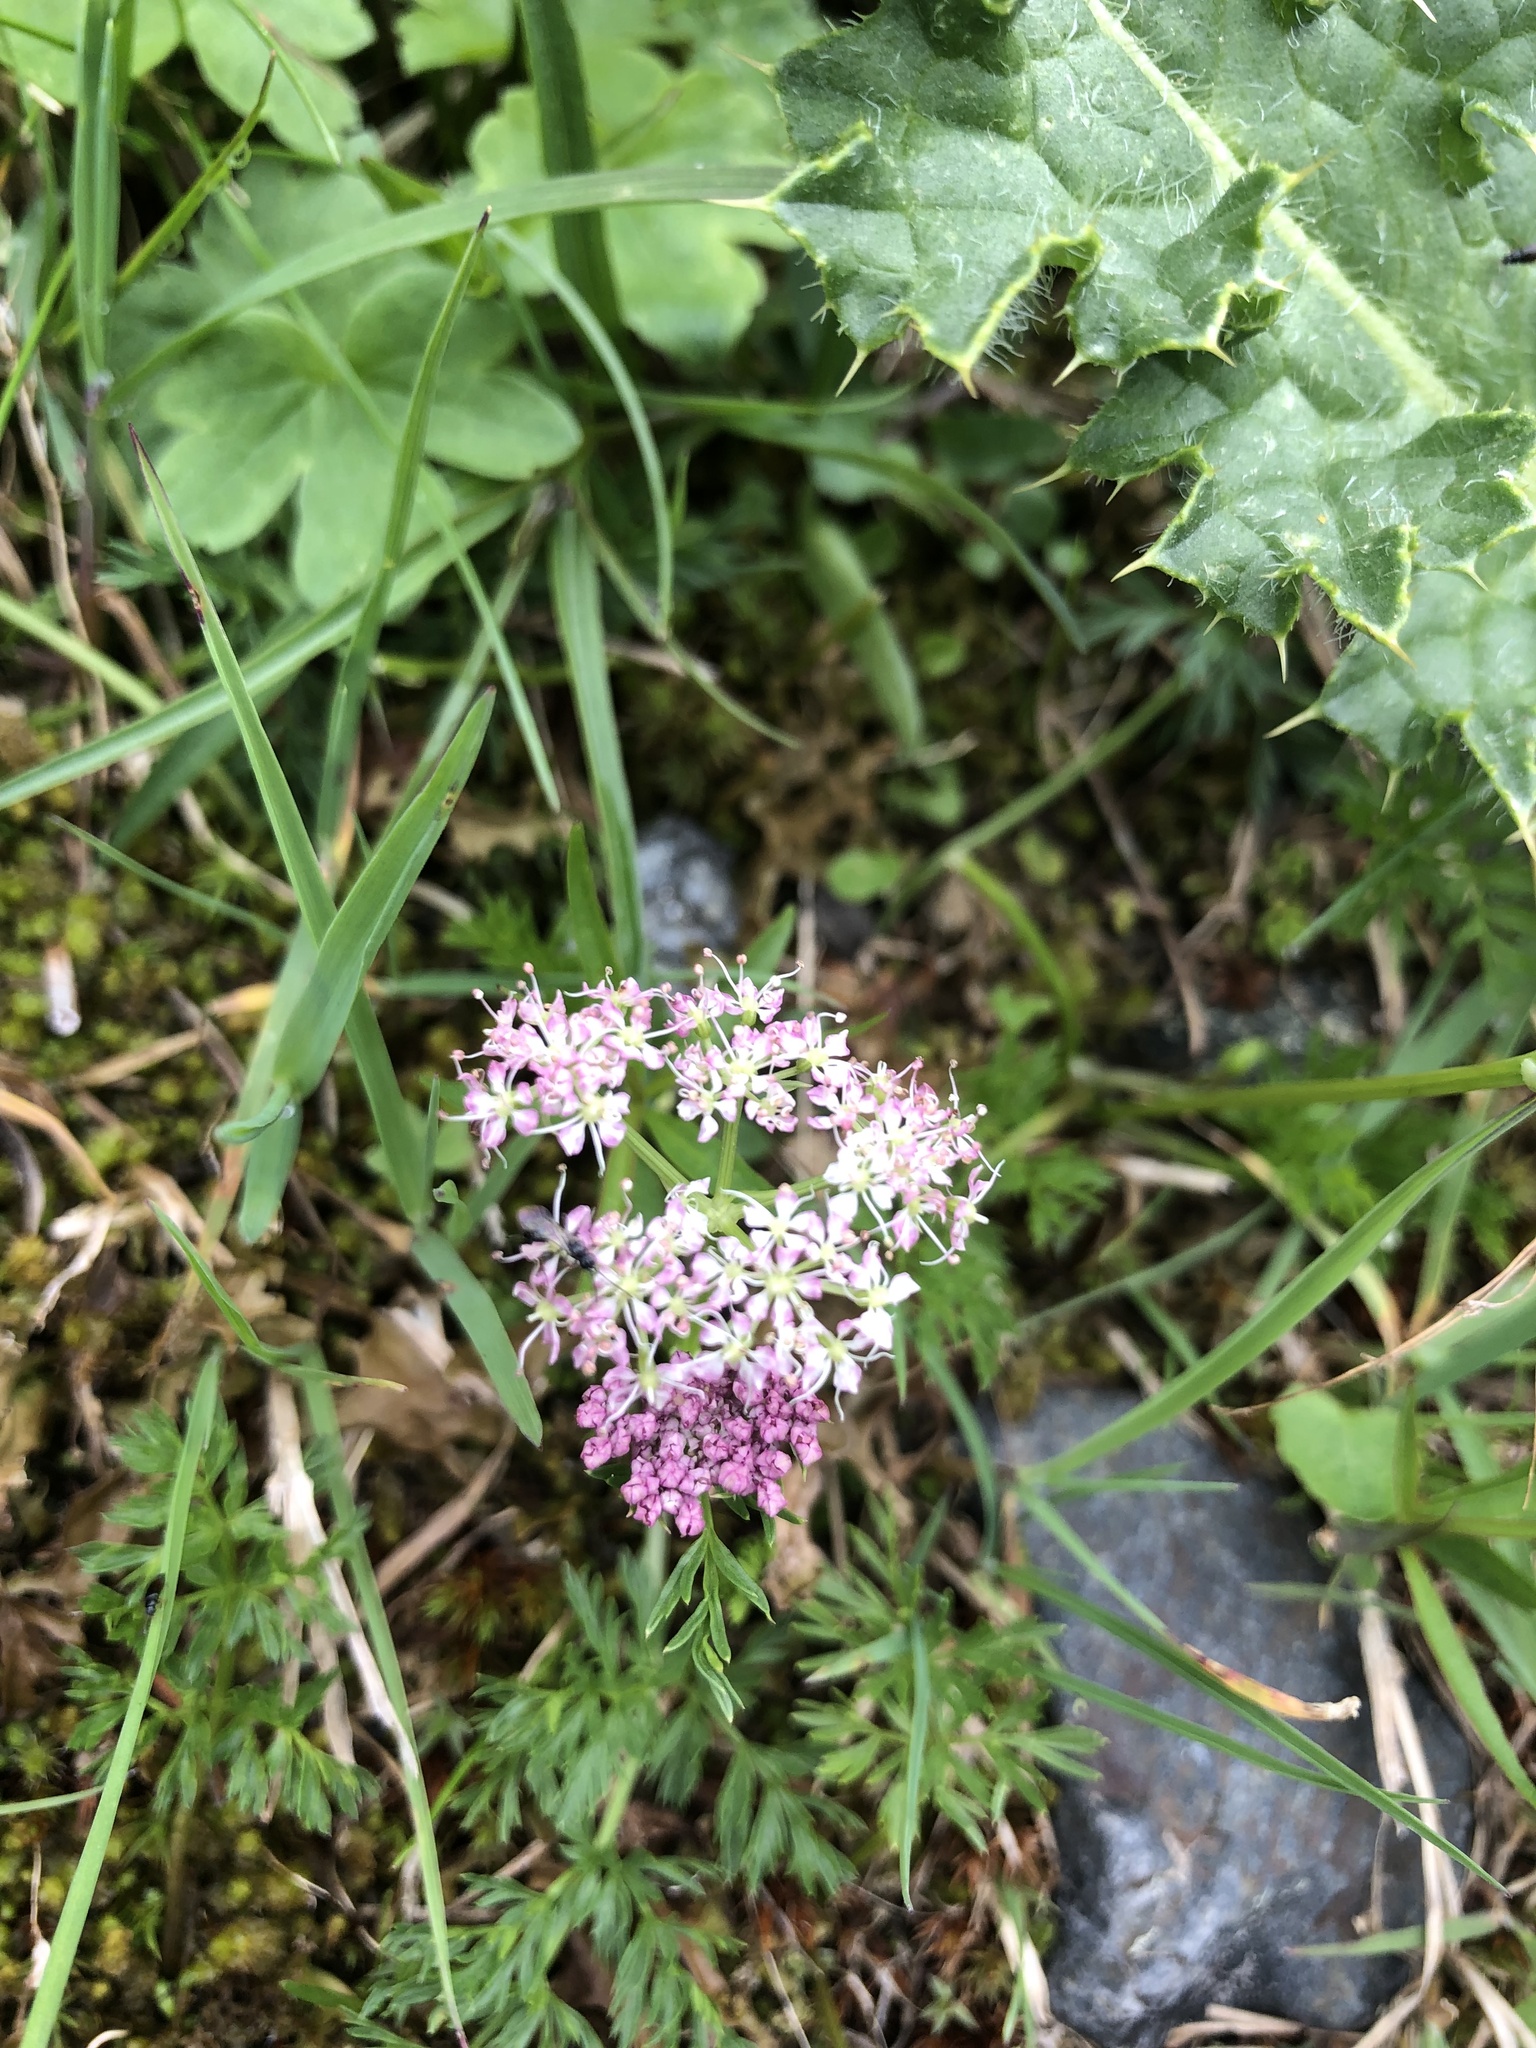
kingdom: Plantae
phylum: Tracheophyta
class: Magnoliopsida
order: Apiales
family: Apiaceae
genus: Mutellina
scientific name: Mutellina adonidifolia
